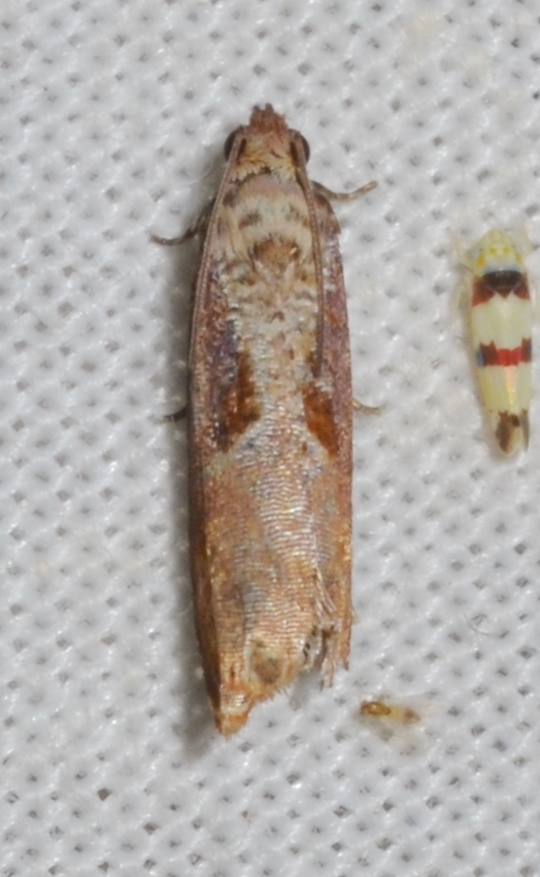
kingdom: Animalia
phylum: Arthropoda
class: Insecta
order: Lepidoptera
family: Tortricidae
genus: Episimus
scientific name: Episimus tyrius
